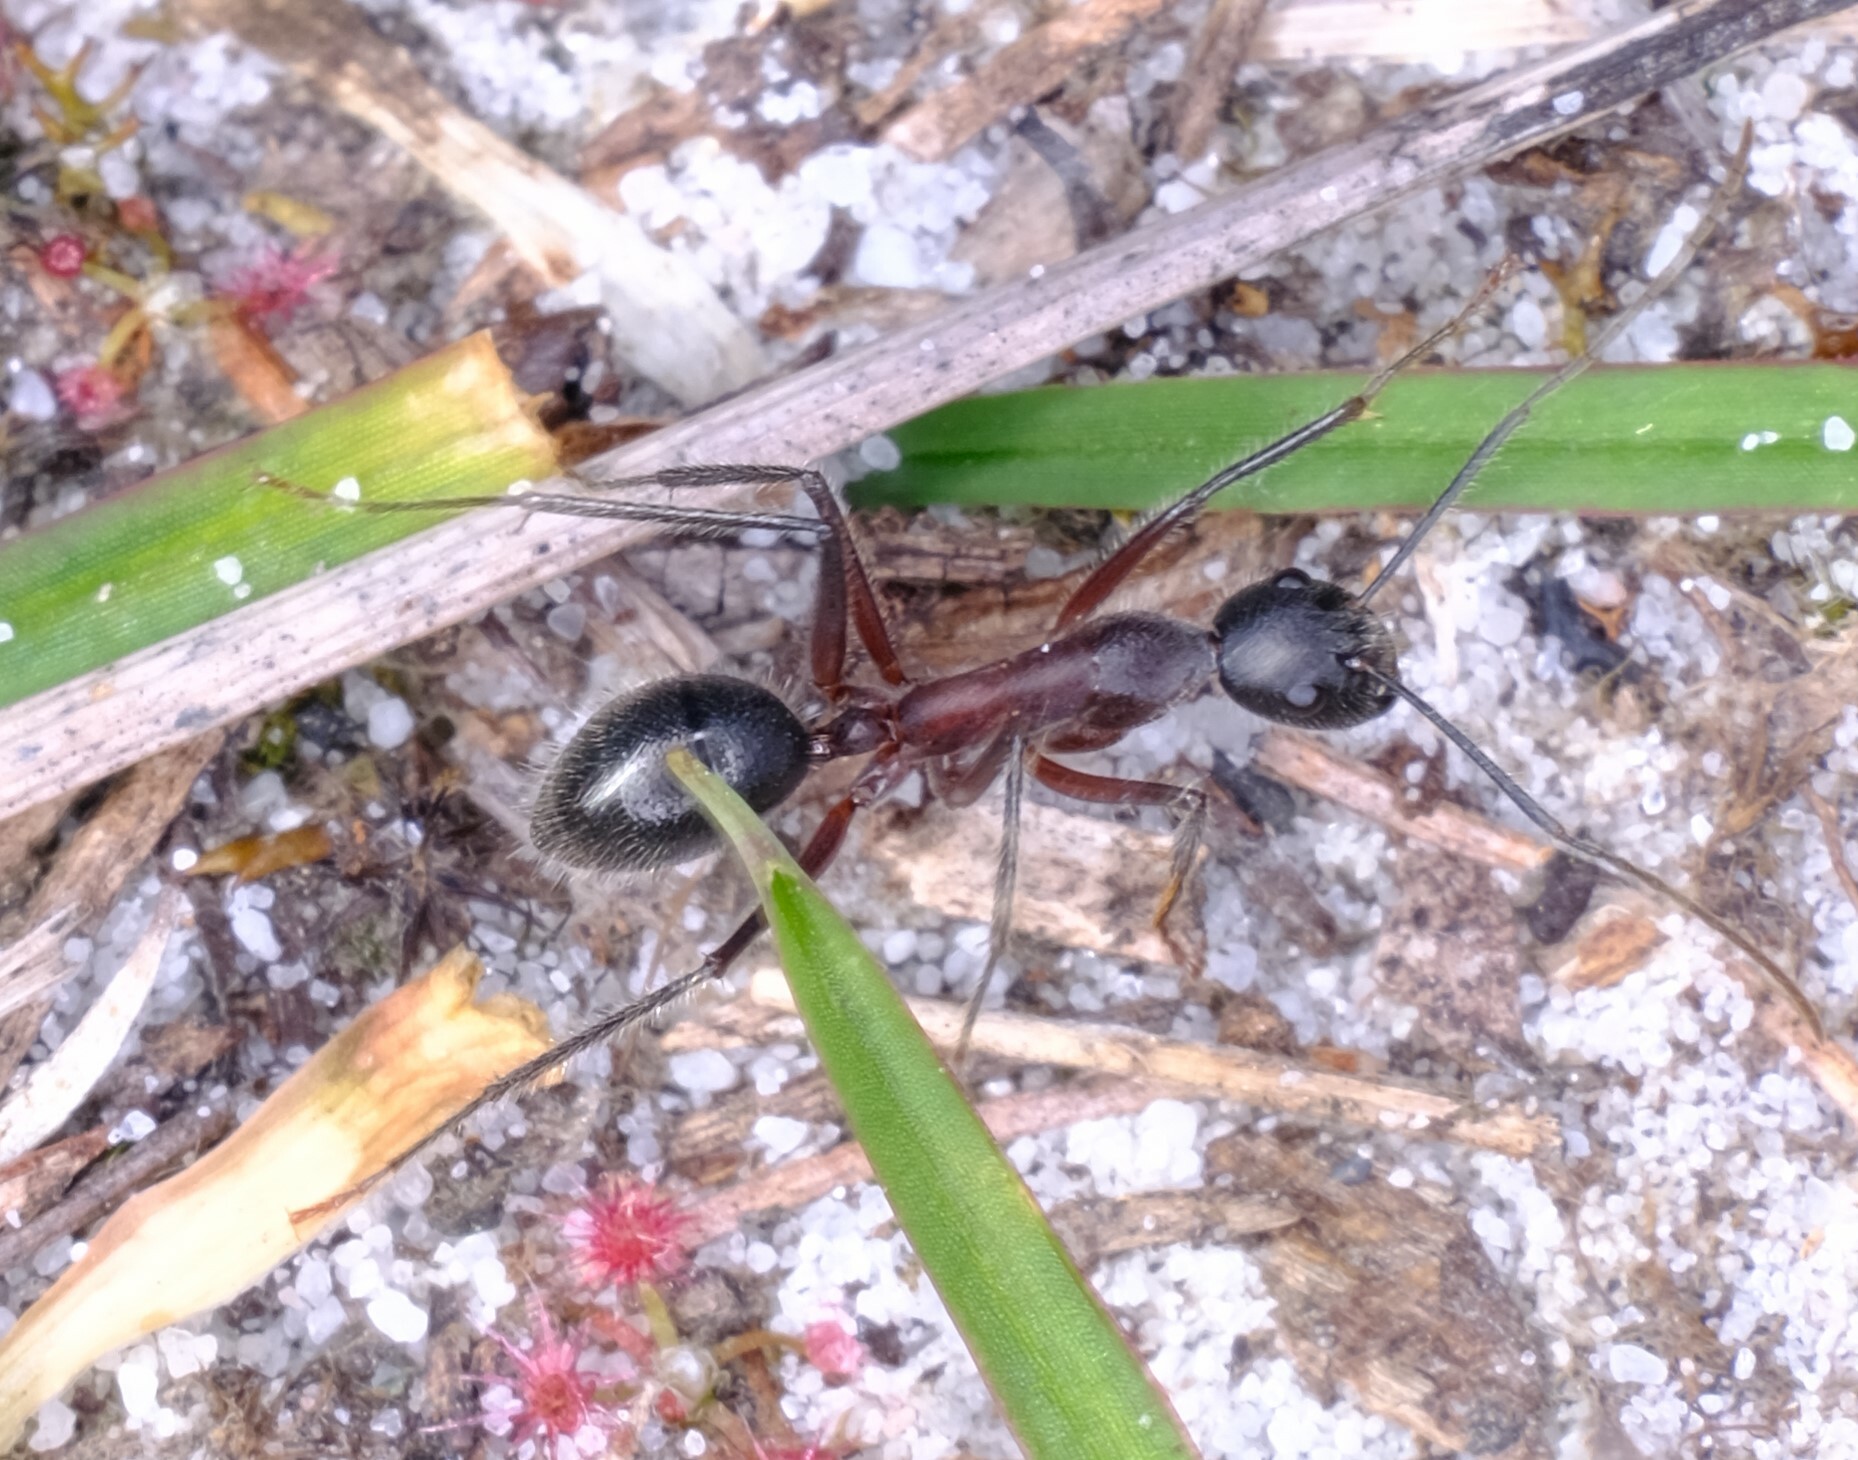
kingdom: Animalia
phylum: Arthropoda
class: Insecta
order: Hymenoptera
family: Formicidae
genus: Camponotus
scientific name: Camponotus intrepidus
